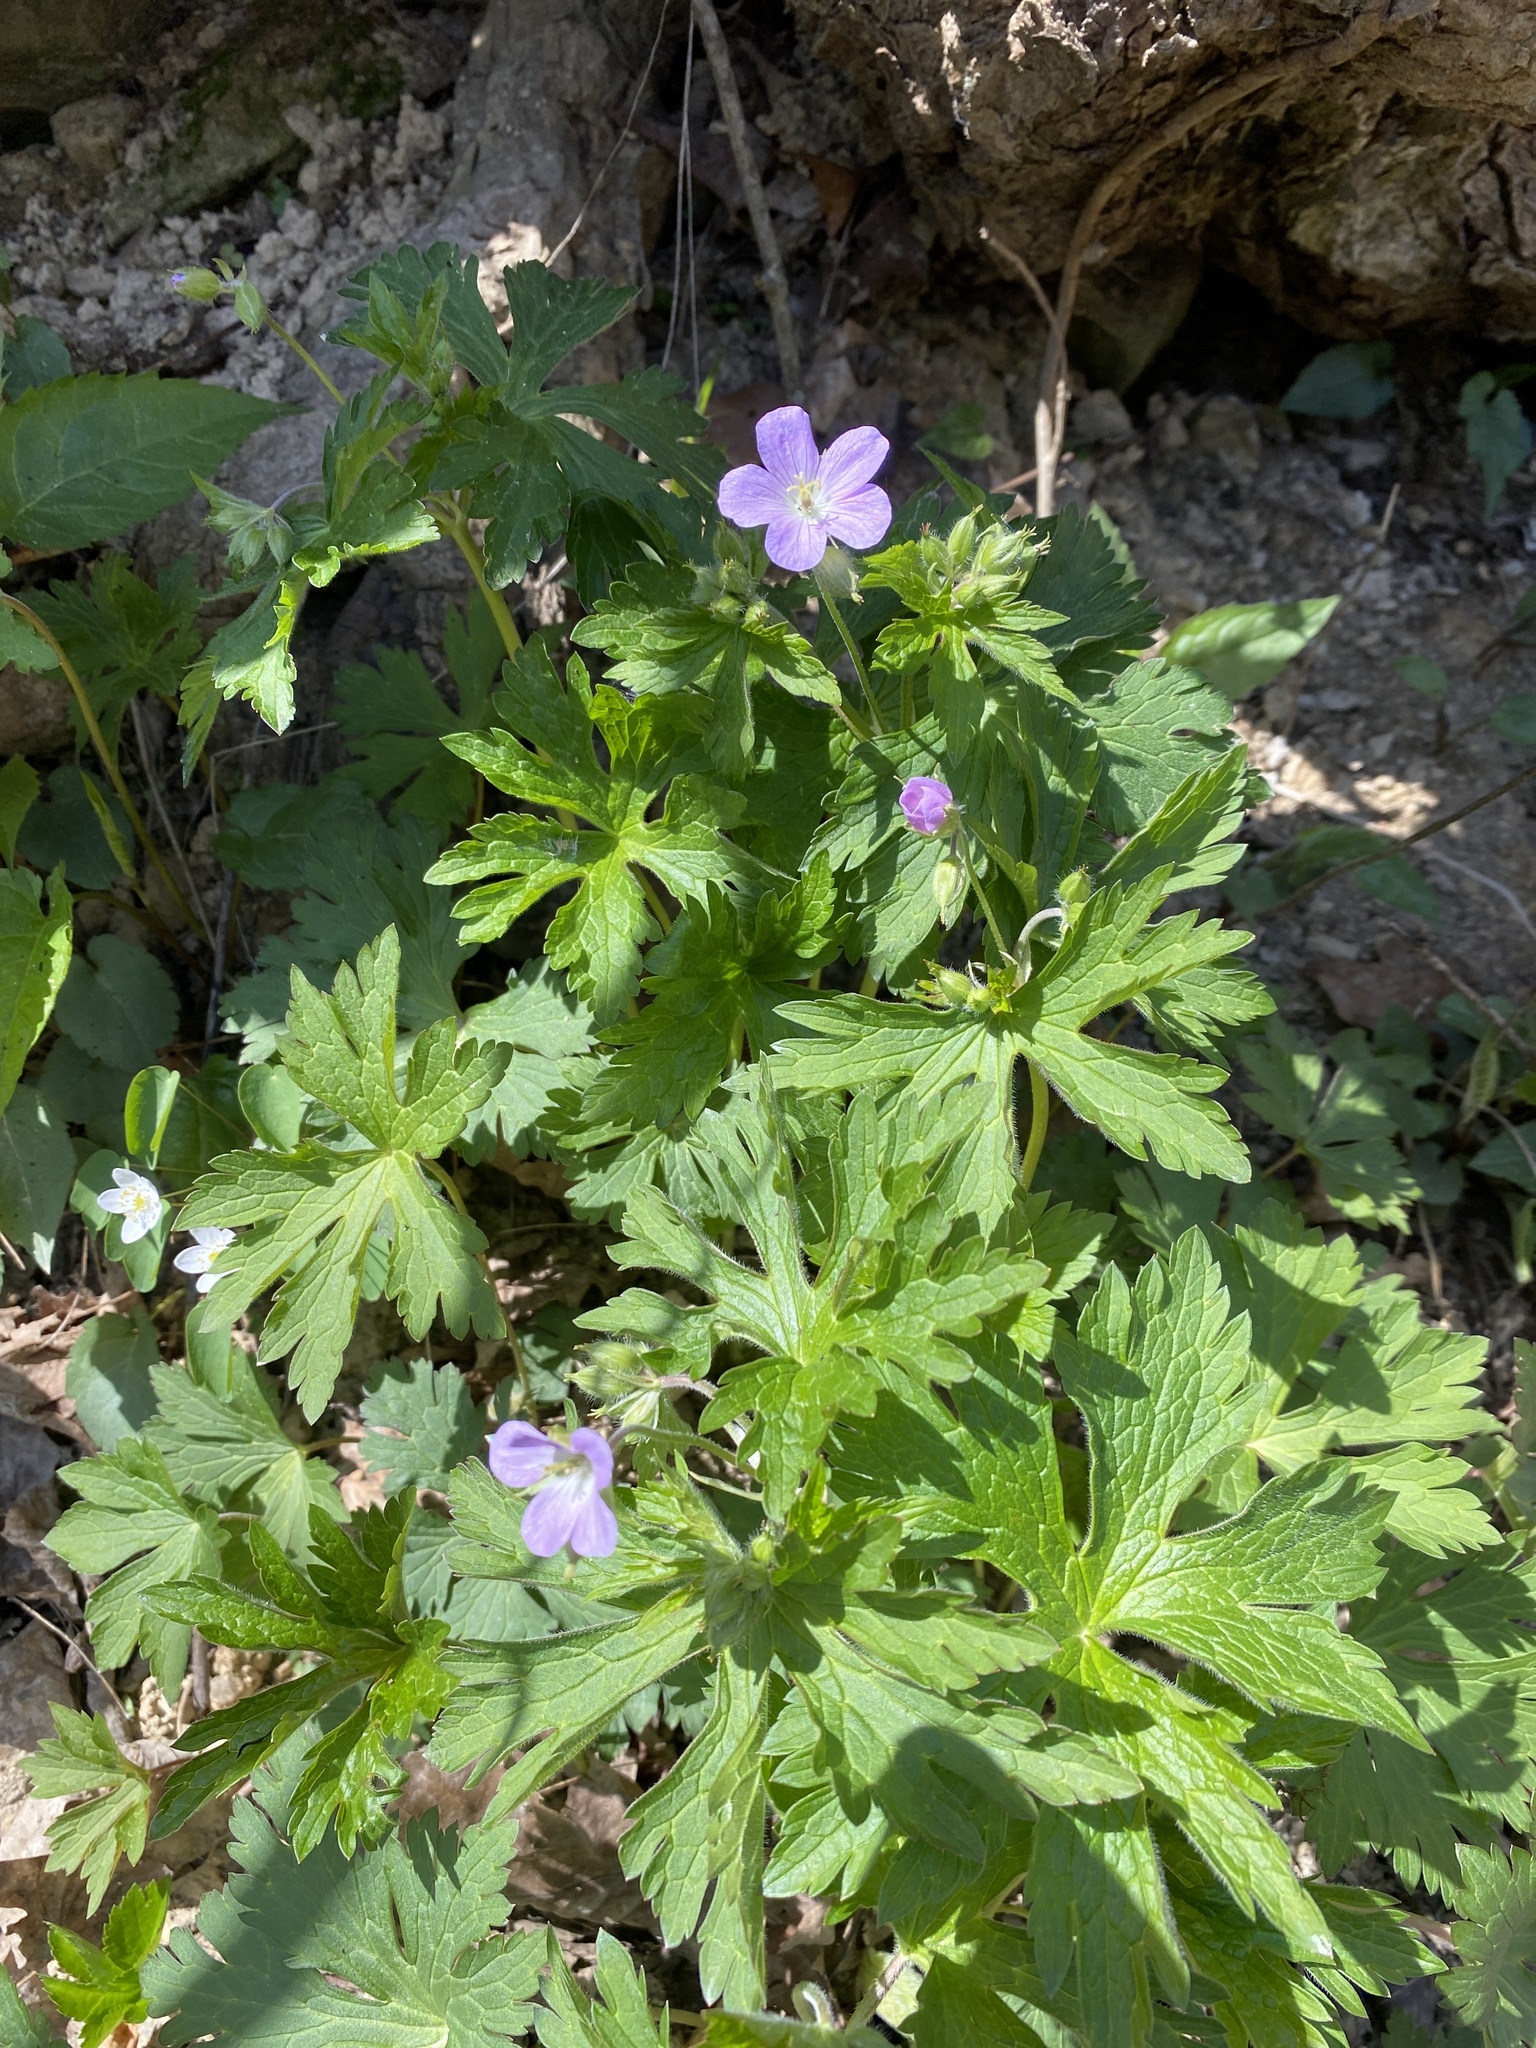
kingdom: Plantae
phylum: Tracheophyta
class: Magnoliopsida
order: Geraniales
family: Geraniaceae
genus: Geranium
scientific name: Geranium maculatum
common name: Spotted geranium
